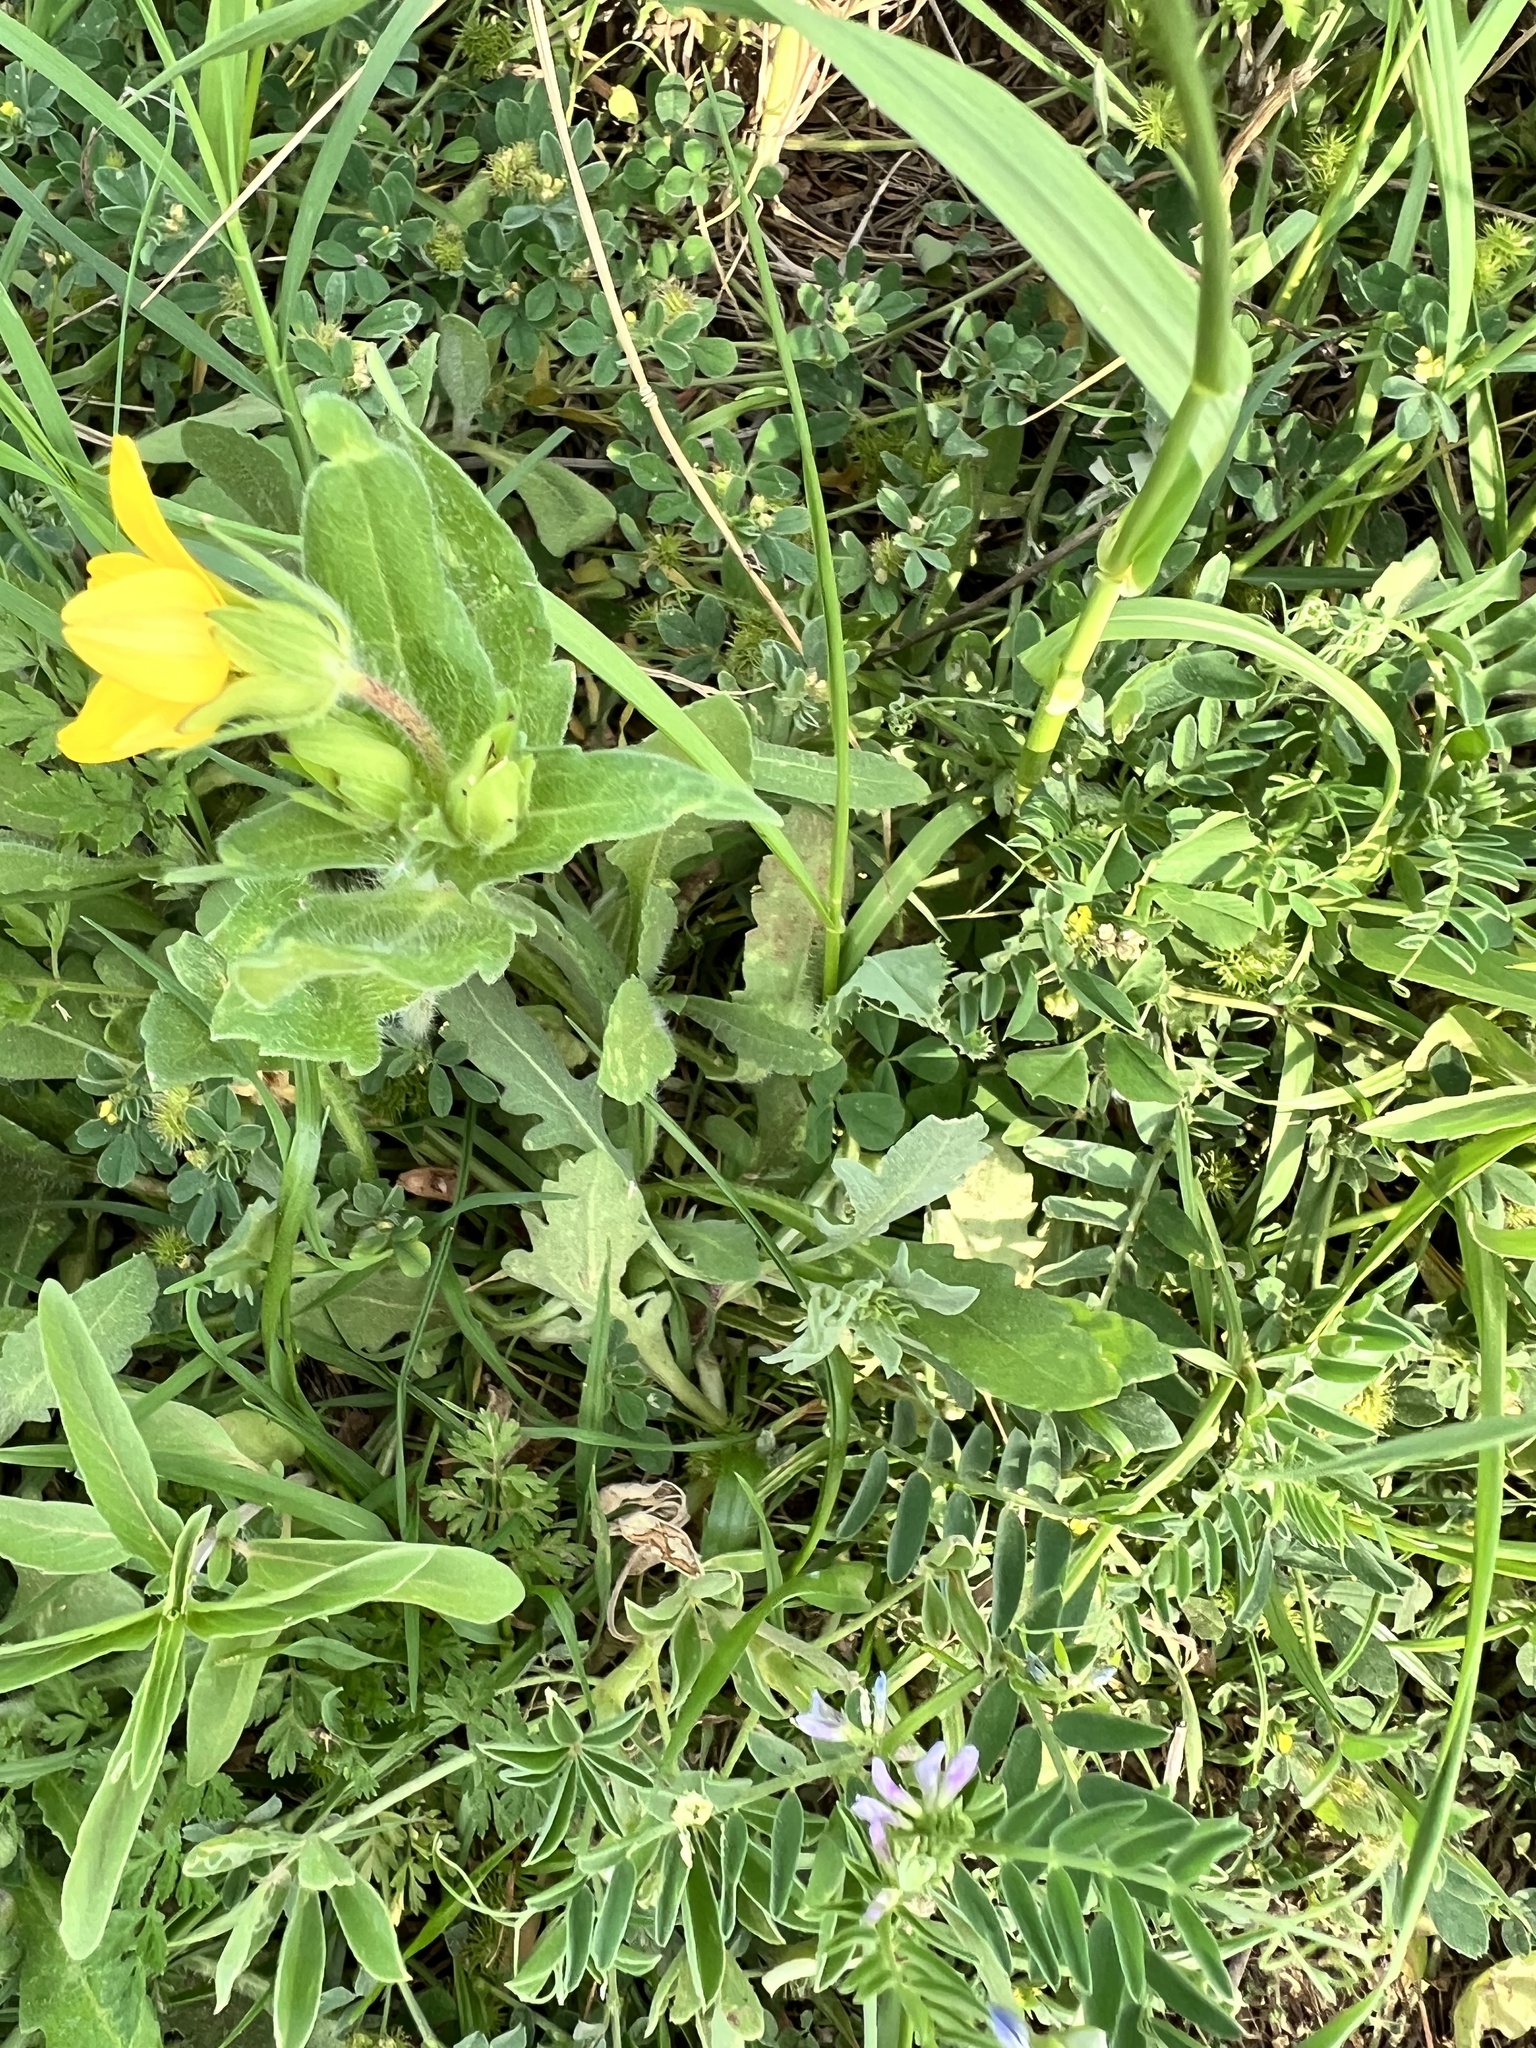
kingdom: Plantae
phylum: Tracheophyta
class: Magnoliopsida
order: Asterales
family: Asteraceae
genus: Lindheimera
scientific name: Lindheimera texana
